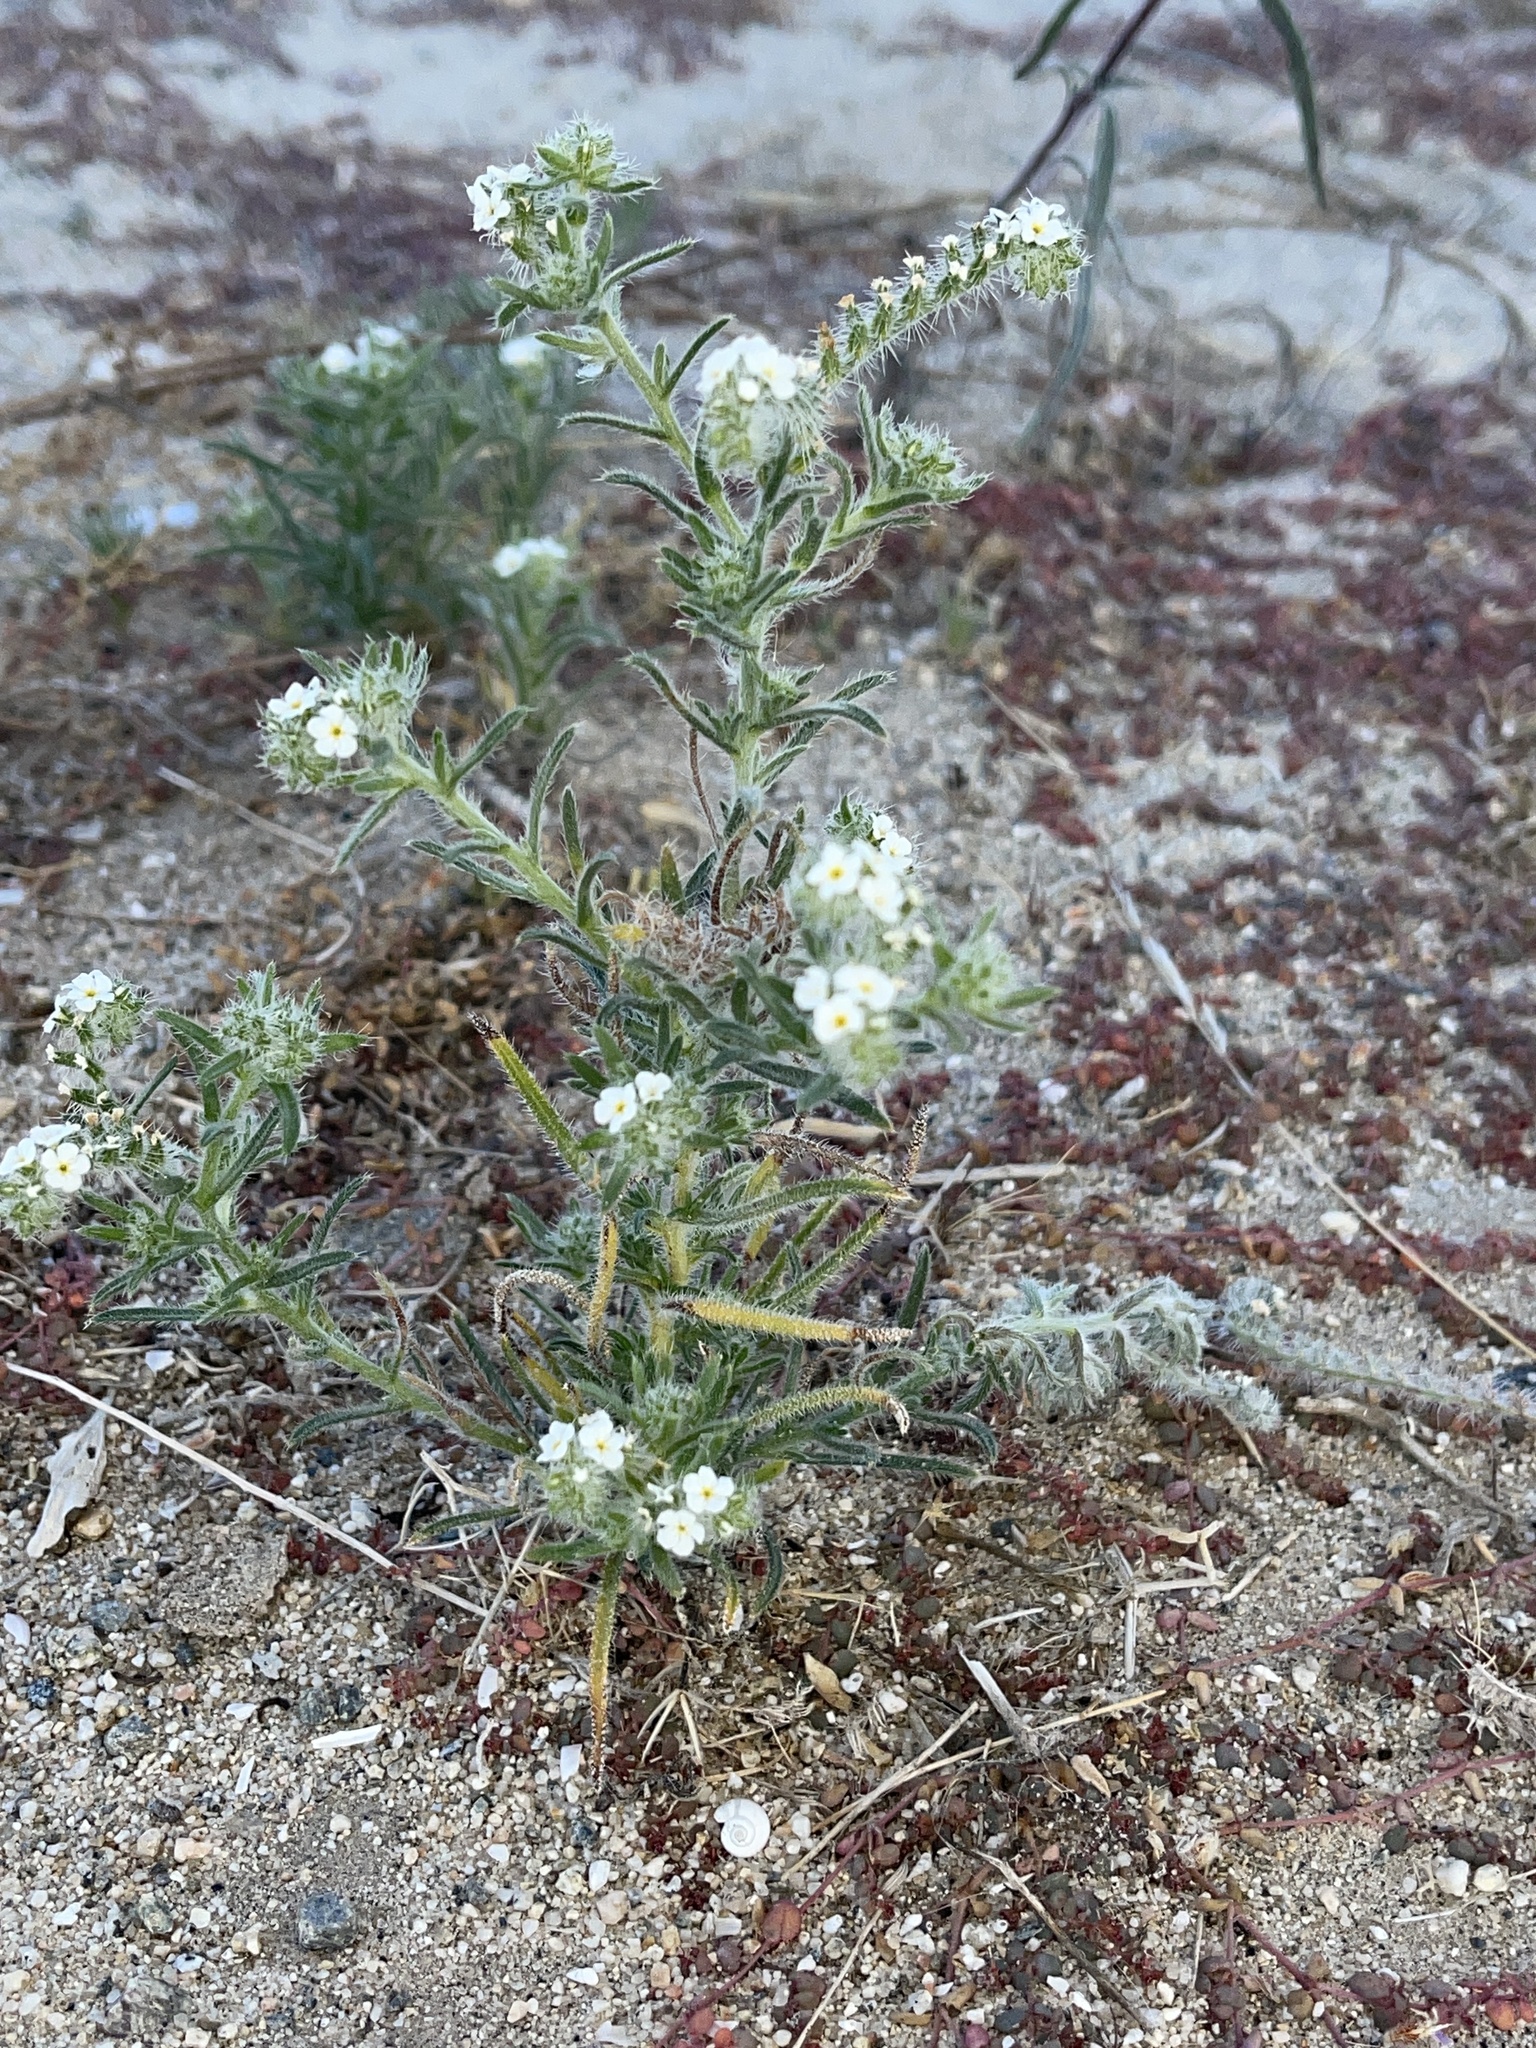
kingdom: Plantae
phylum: Tracheophyta
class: Magnoliopsida
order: Boraginales
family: Boraginaceae
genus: Johnstonella
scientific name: Johnstonella angustifolia
